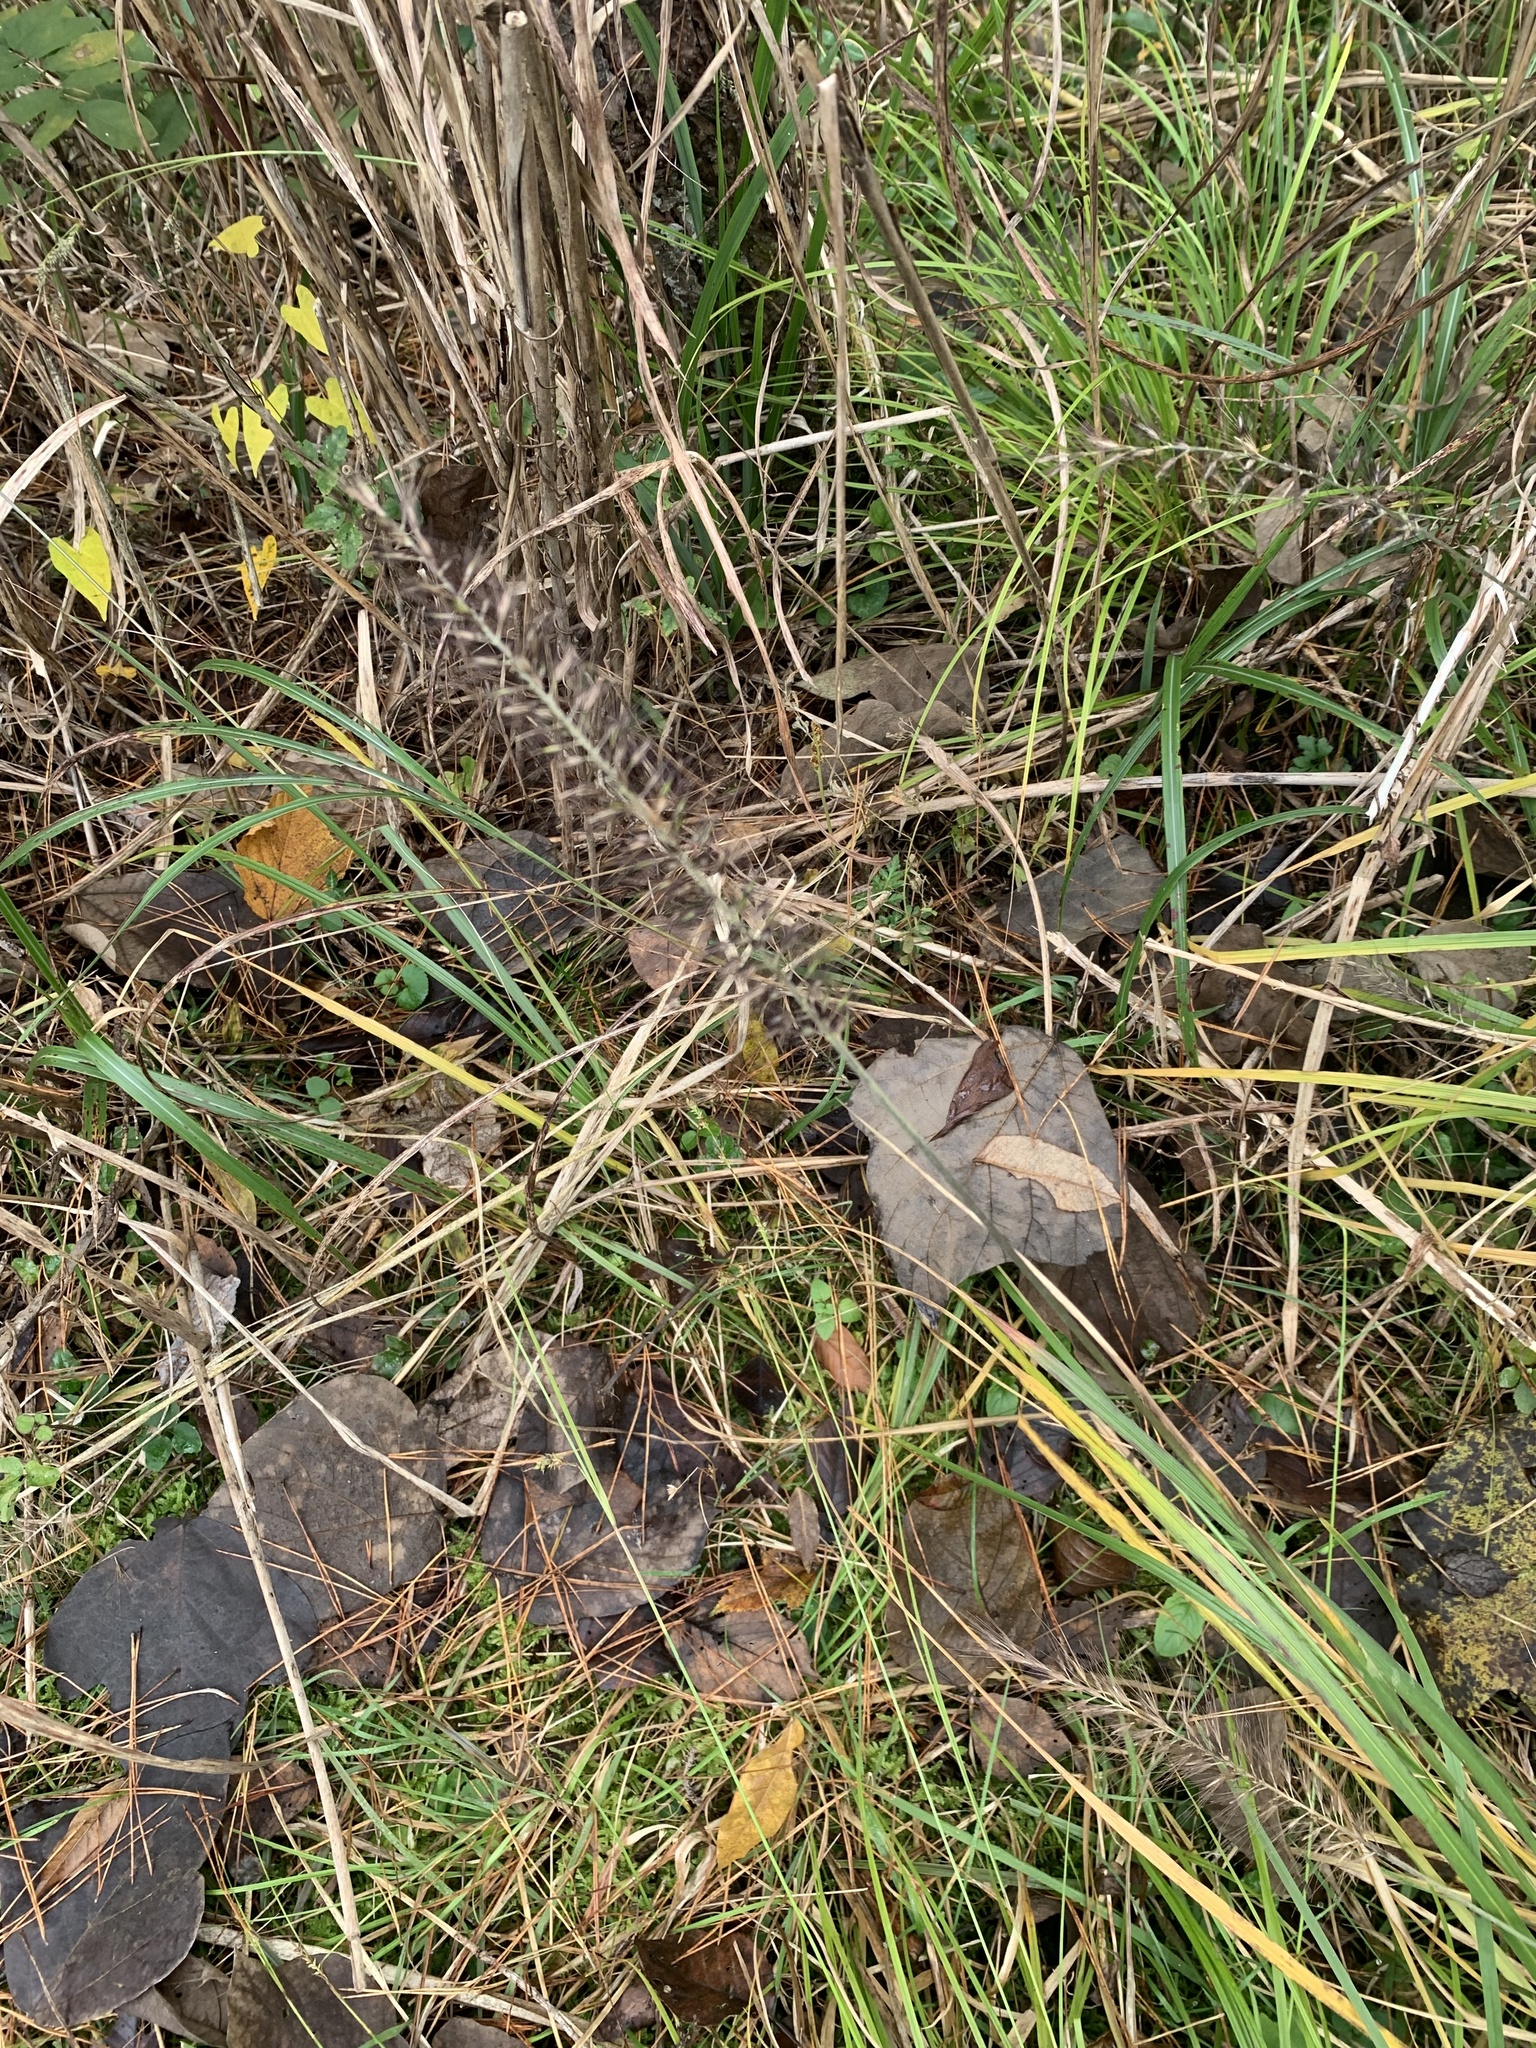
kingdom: Plantae
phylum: Tracheophyta
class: Liliopsida
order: Poales
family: Poaceae
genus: Cenchrus
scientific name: Cenchrus alopecuroides
